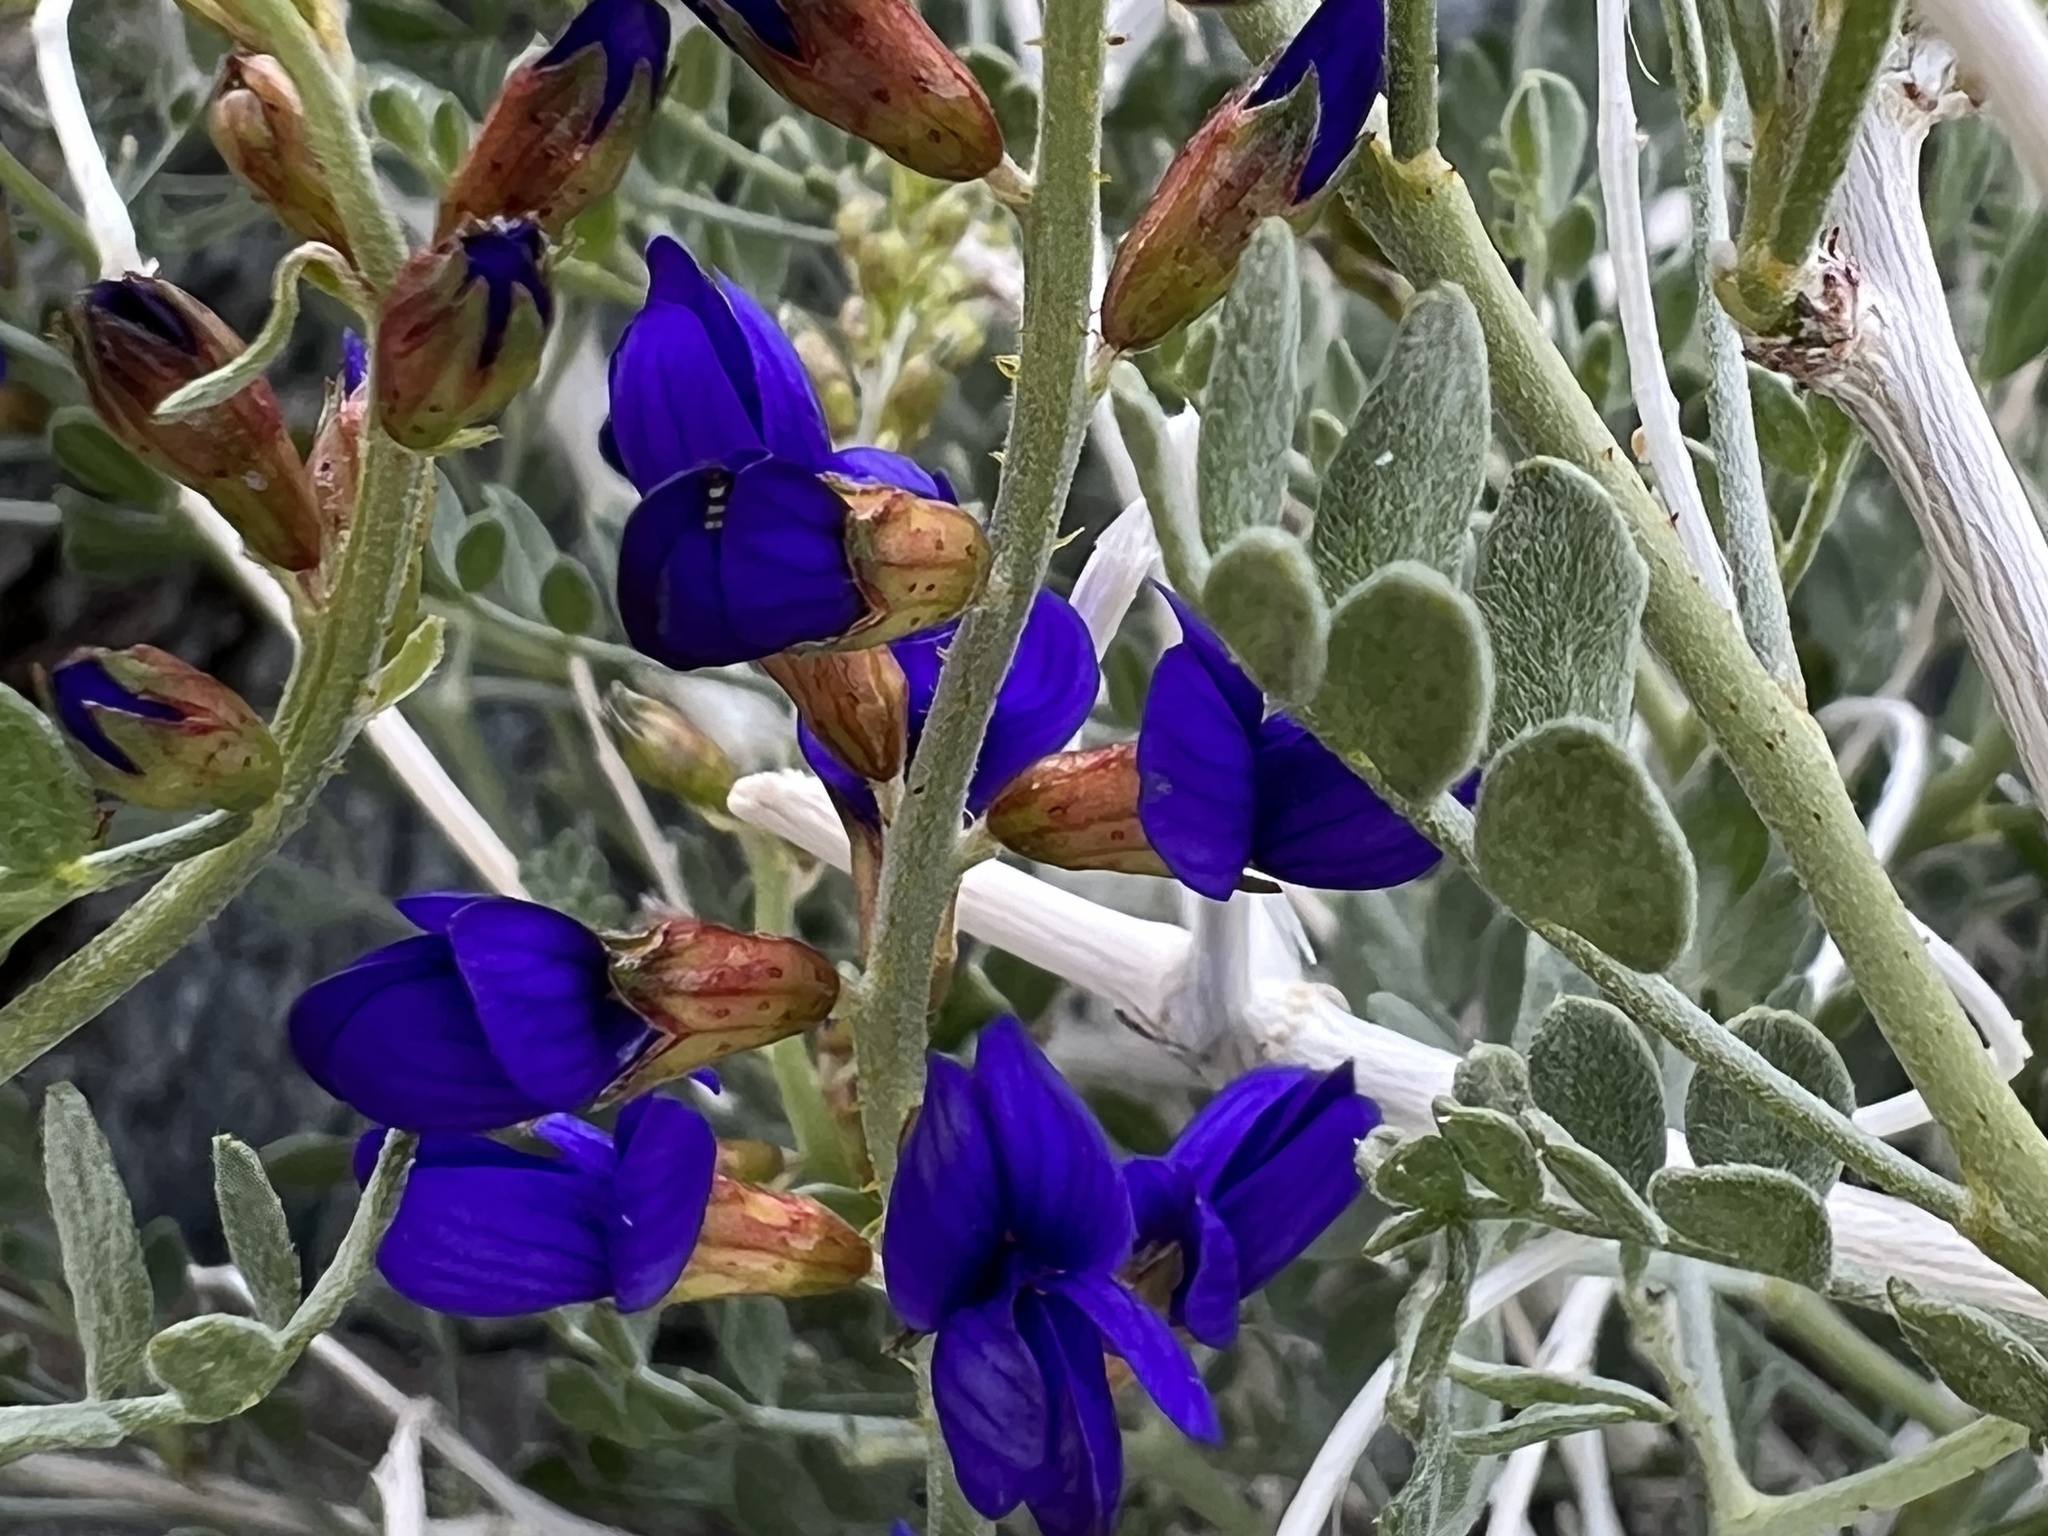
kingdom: Plantae
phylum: Tracheophyta
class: Magnoliopsida
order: Fabales
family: Fabaceae
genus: Psorothamnus
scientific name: Psorothamnus arborescens
